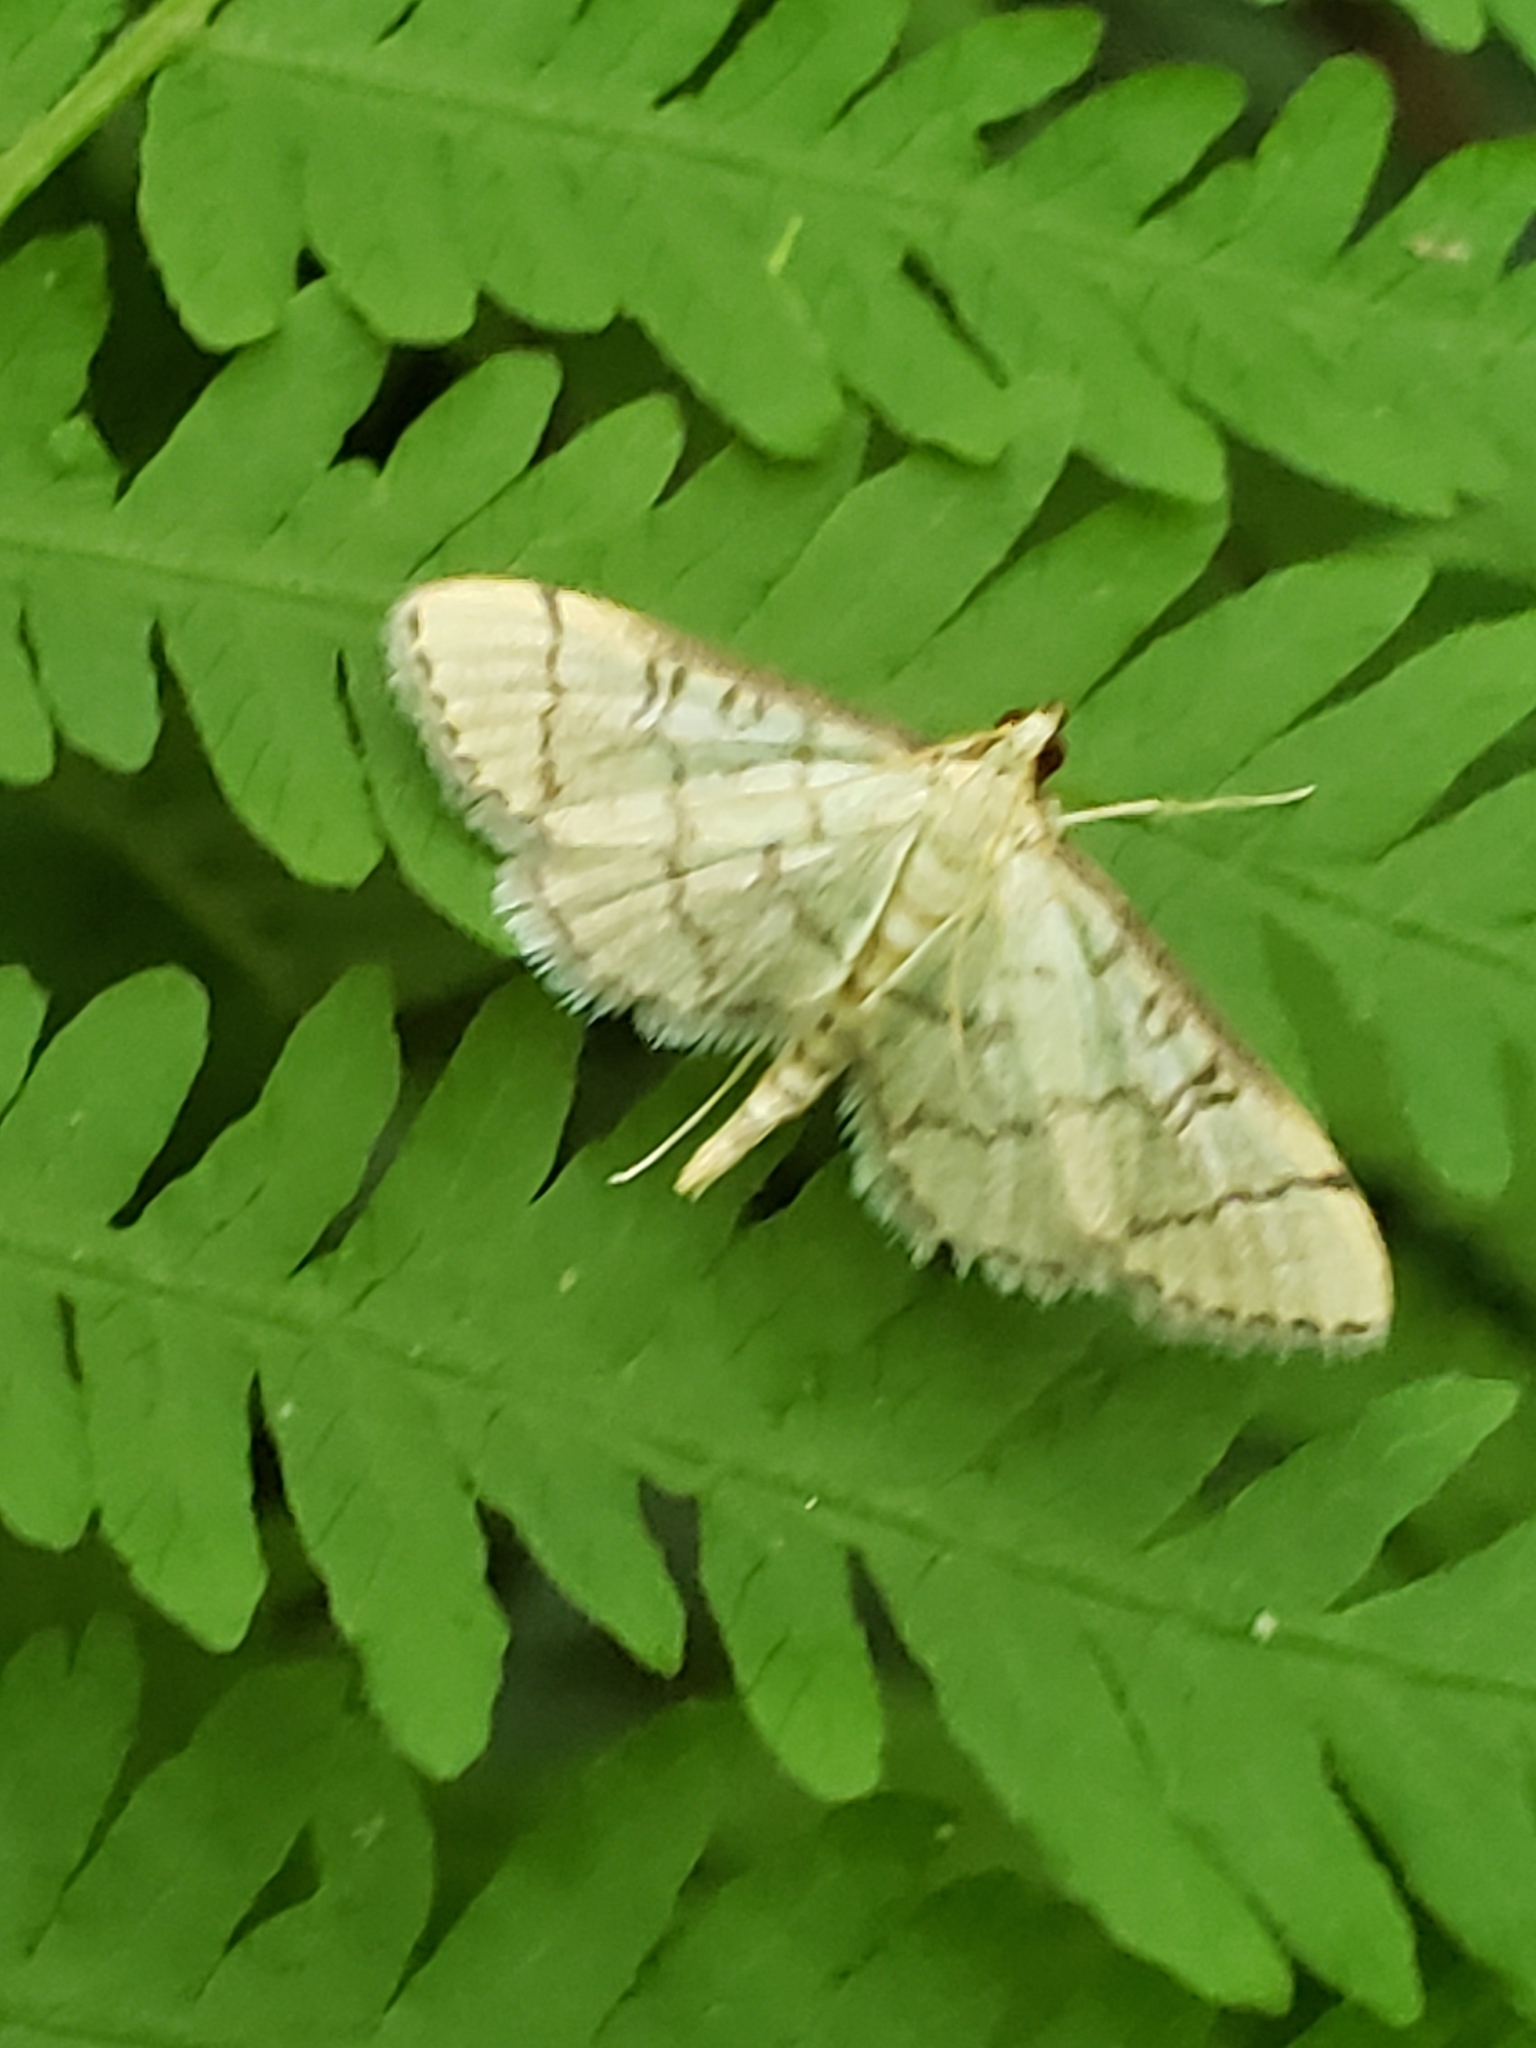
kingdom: Animalia
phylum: Arthropoda
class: Insecta
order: Lepidoptera
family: Crambidae
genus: Lamprosema
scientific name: Lamprosema Blepharomastix ranalis
